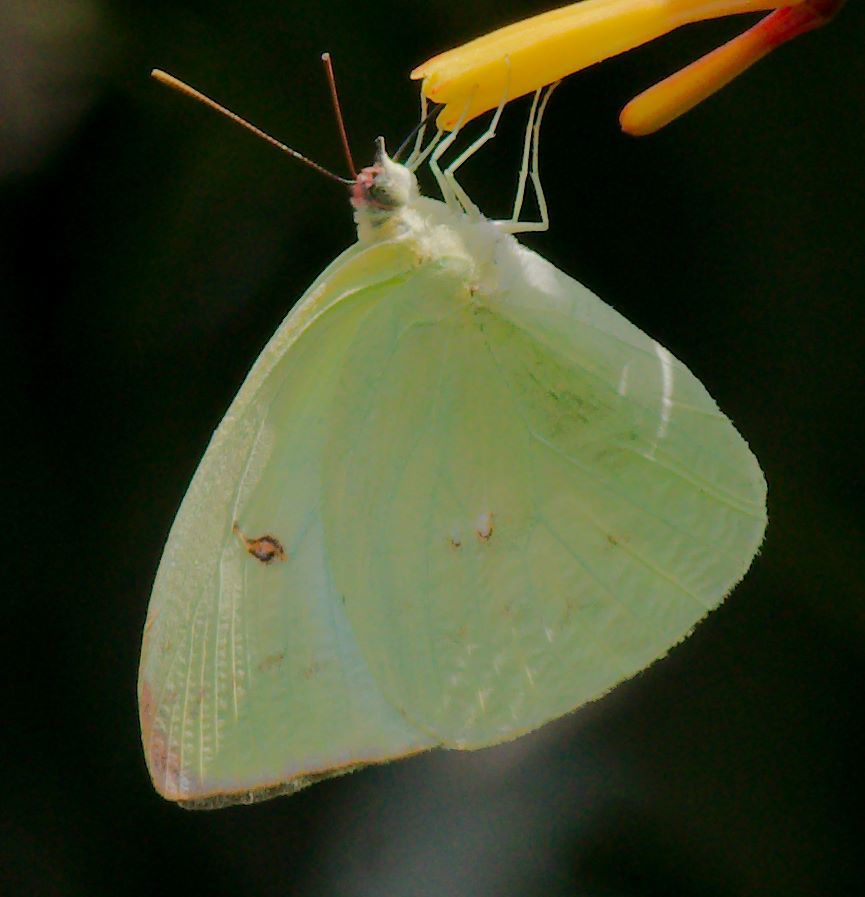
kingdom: Animalia
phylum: Arthropoda
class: Insecta
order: Lepidoptera
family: Pieridae
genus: Aphrissa
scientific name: Aphrissa statira
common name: Statira sulphur
